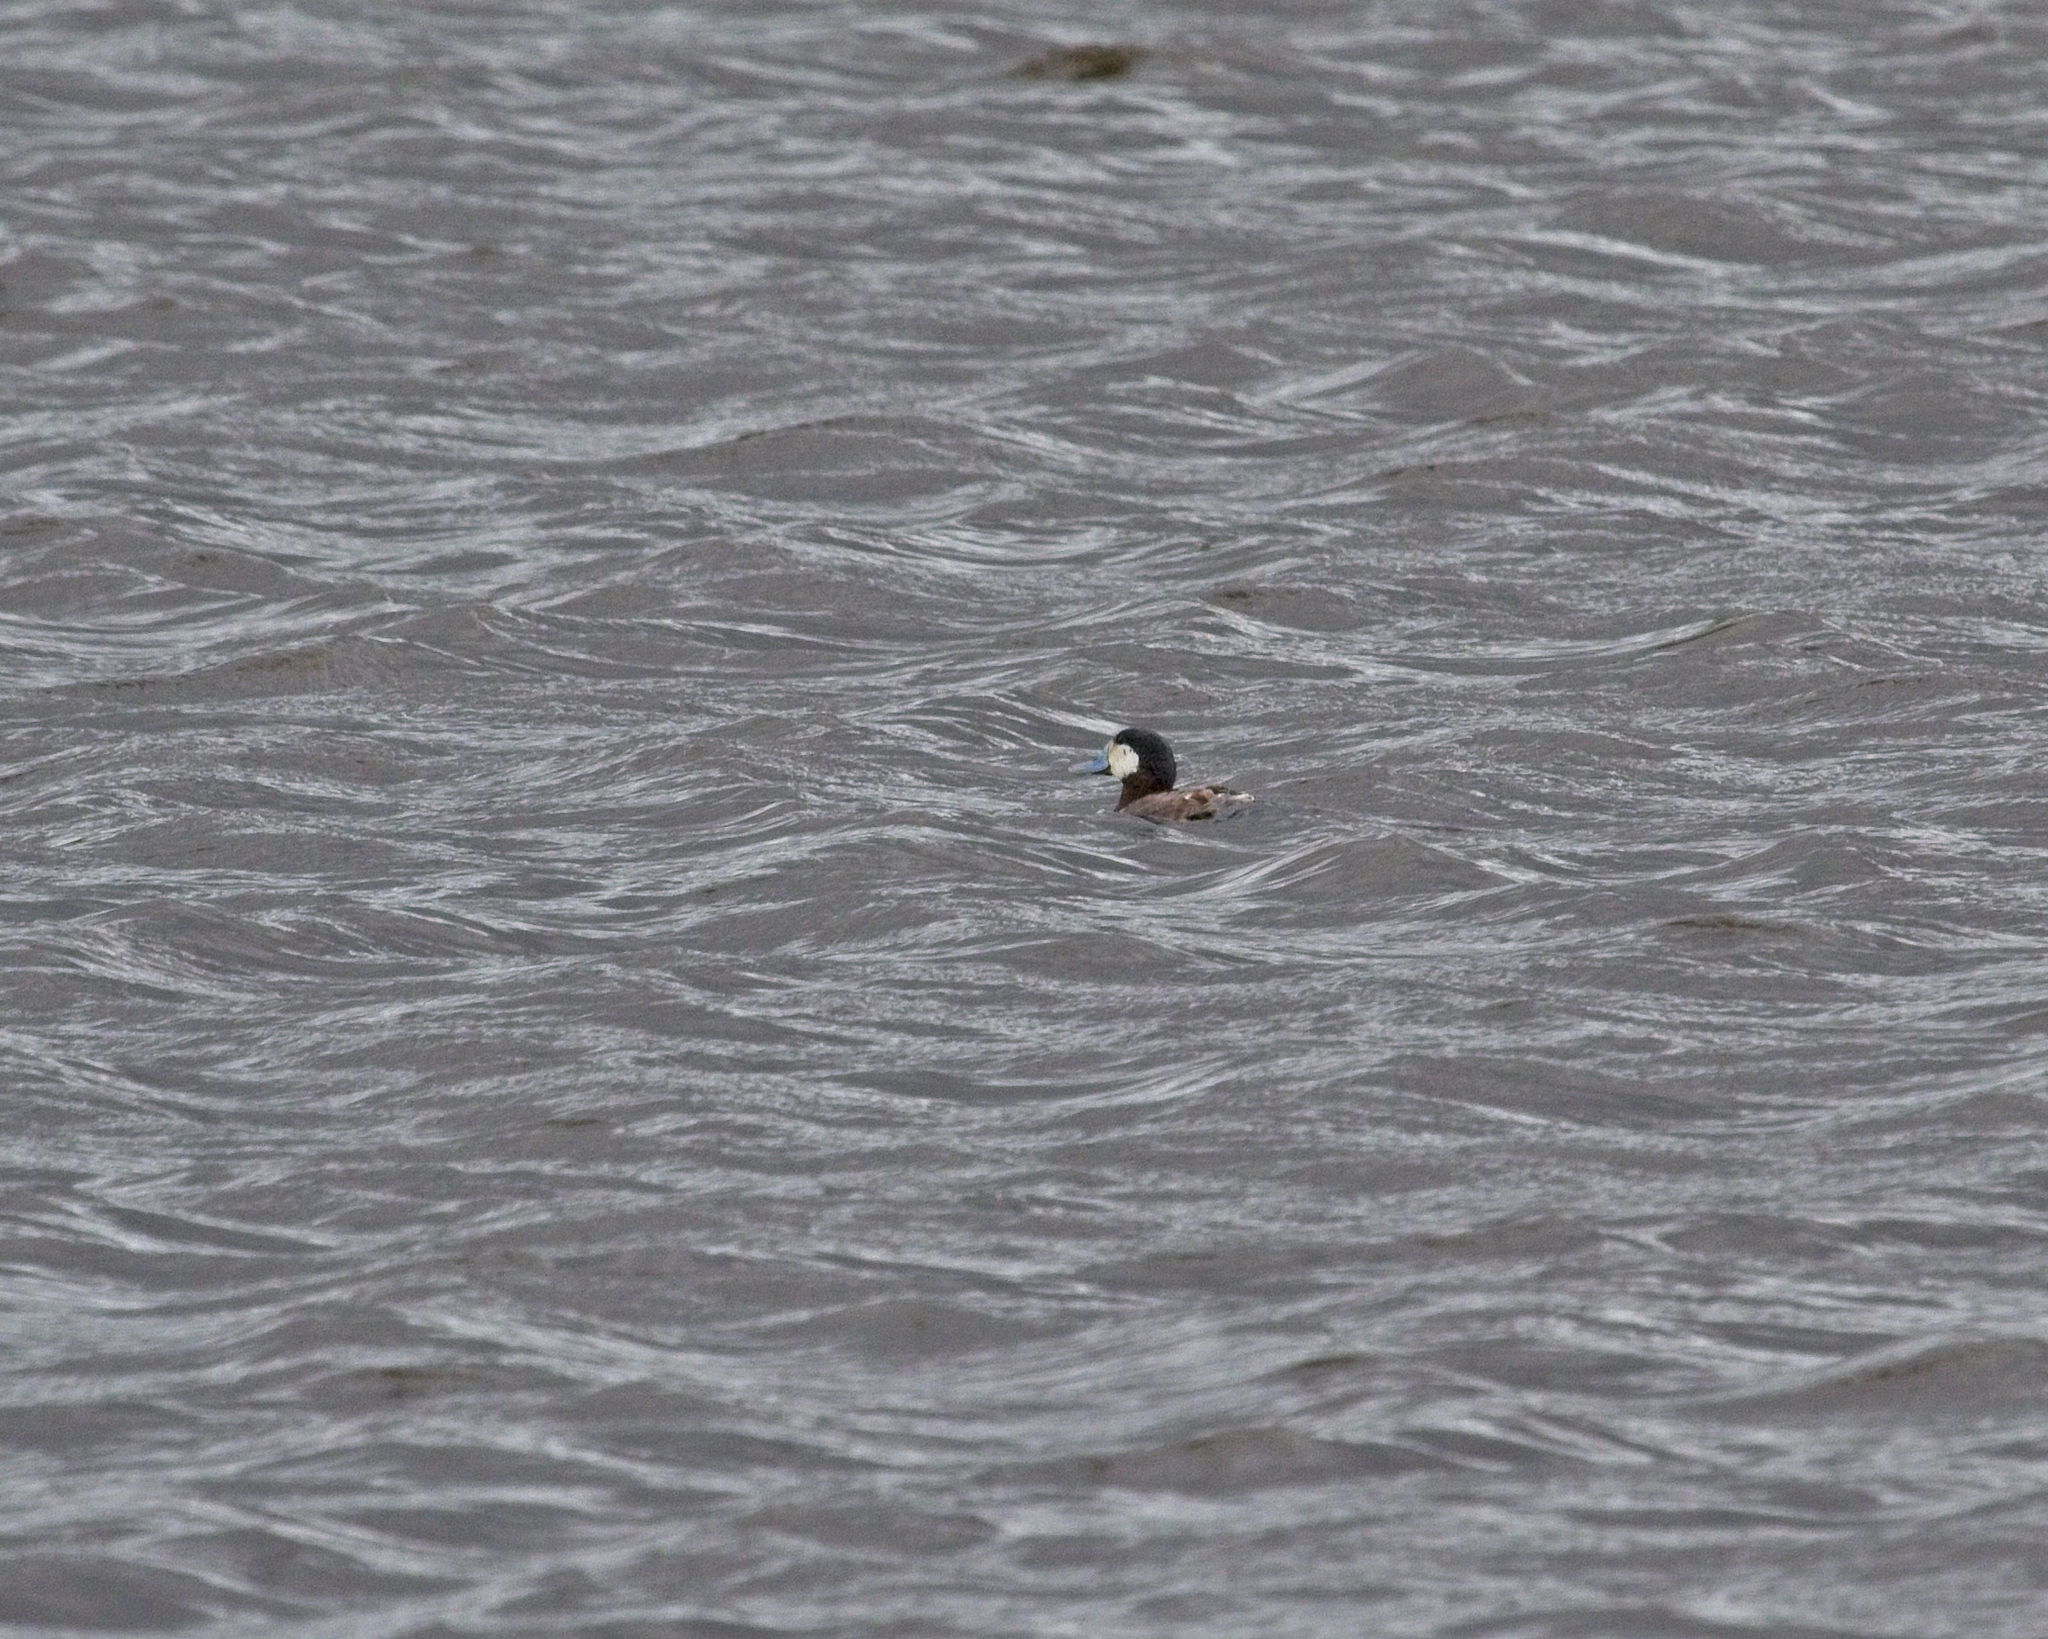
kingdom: Animalia
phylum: Chordata
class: Aves
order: Anseriformes
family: Anatidae
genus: Oxyura
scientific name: Oxyura jamaicensis
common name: Ruddy duck
